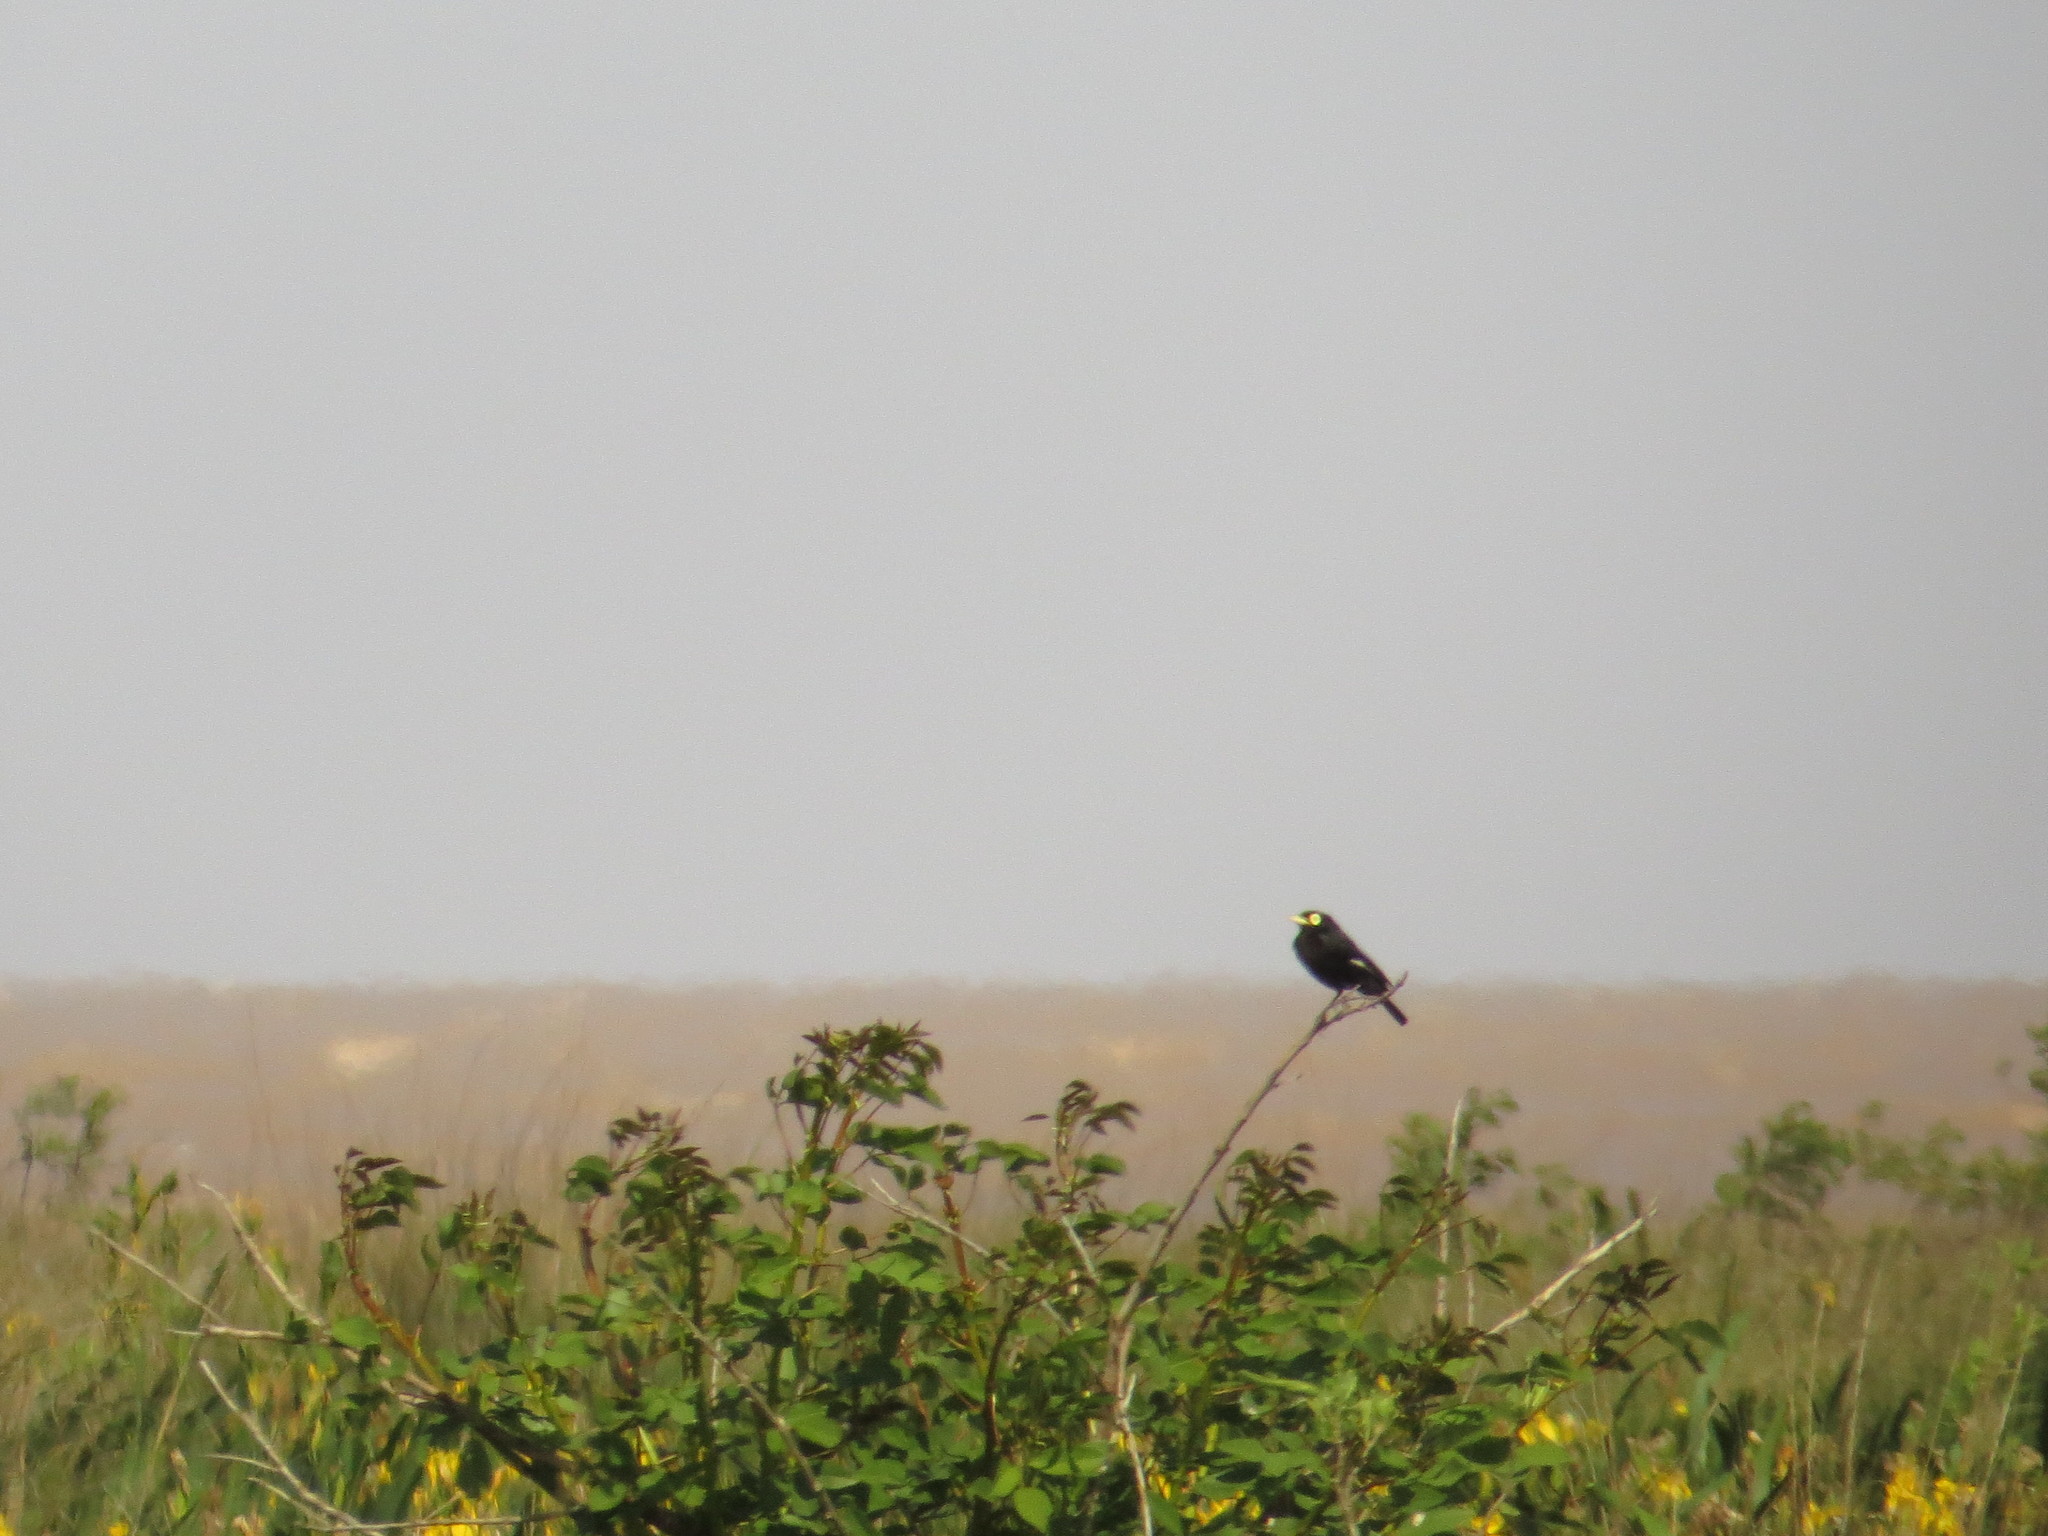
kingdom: Animalia
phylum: Chordata
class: Aves
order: Passeriformes
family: Tyrannidae
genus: Hymenops
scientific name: Hymenops perspicillatus
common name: Spectacled tyrant
